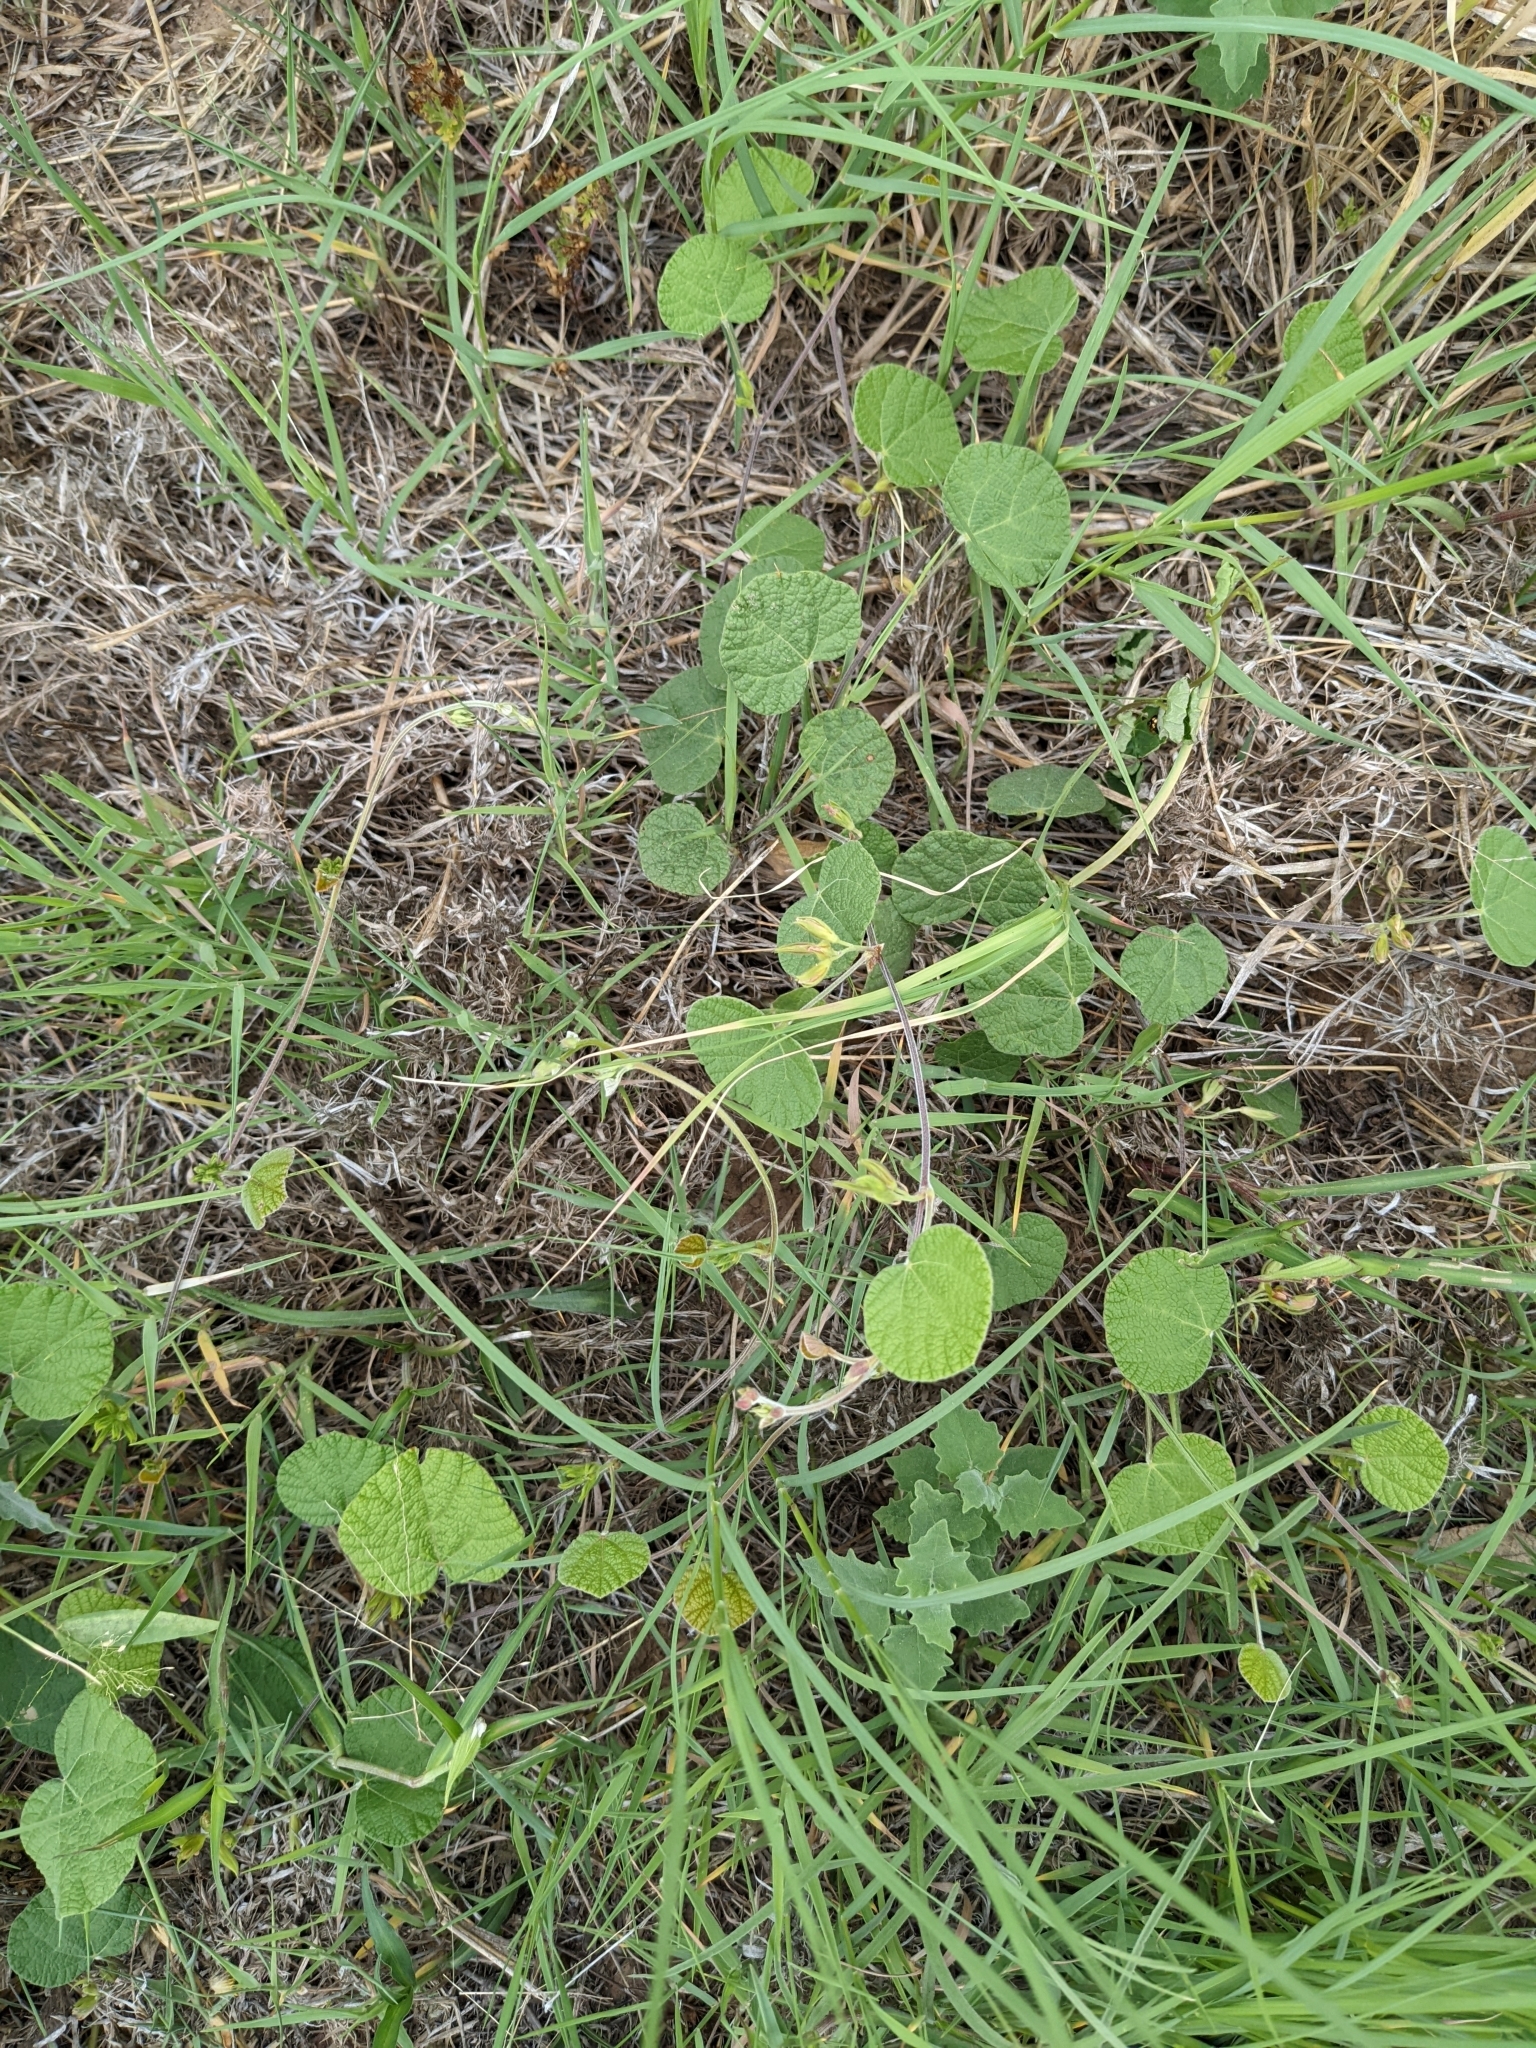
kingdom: Plantae
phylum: Tracheophyta
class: Magnoliopsida
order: Fabales
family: Fabaceae
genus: Rhynchosia
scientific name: Rhynchosia americana
